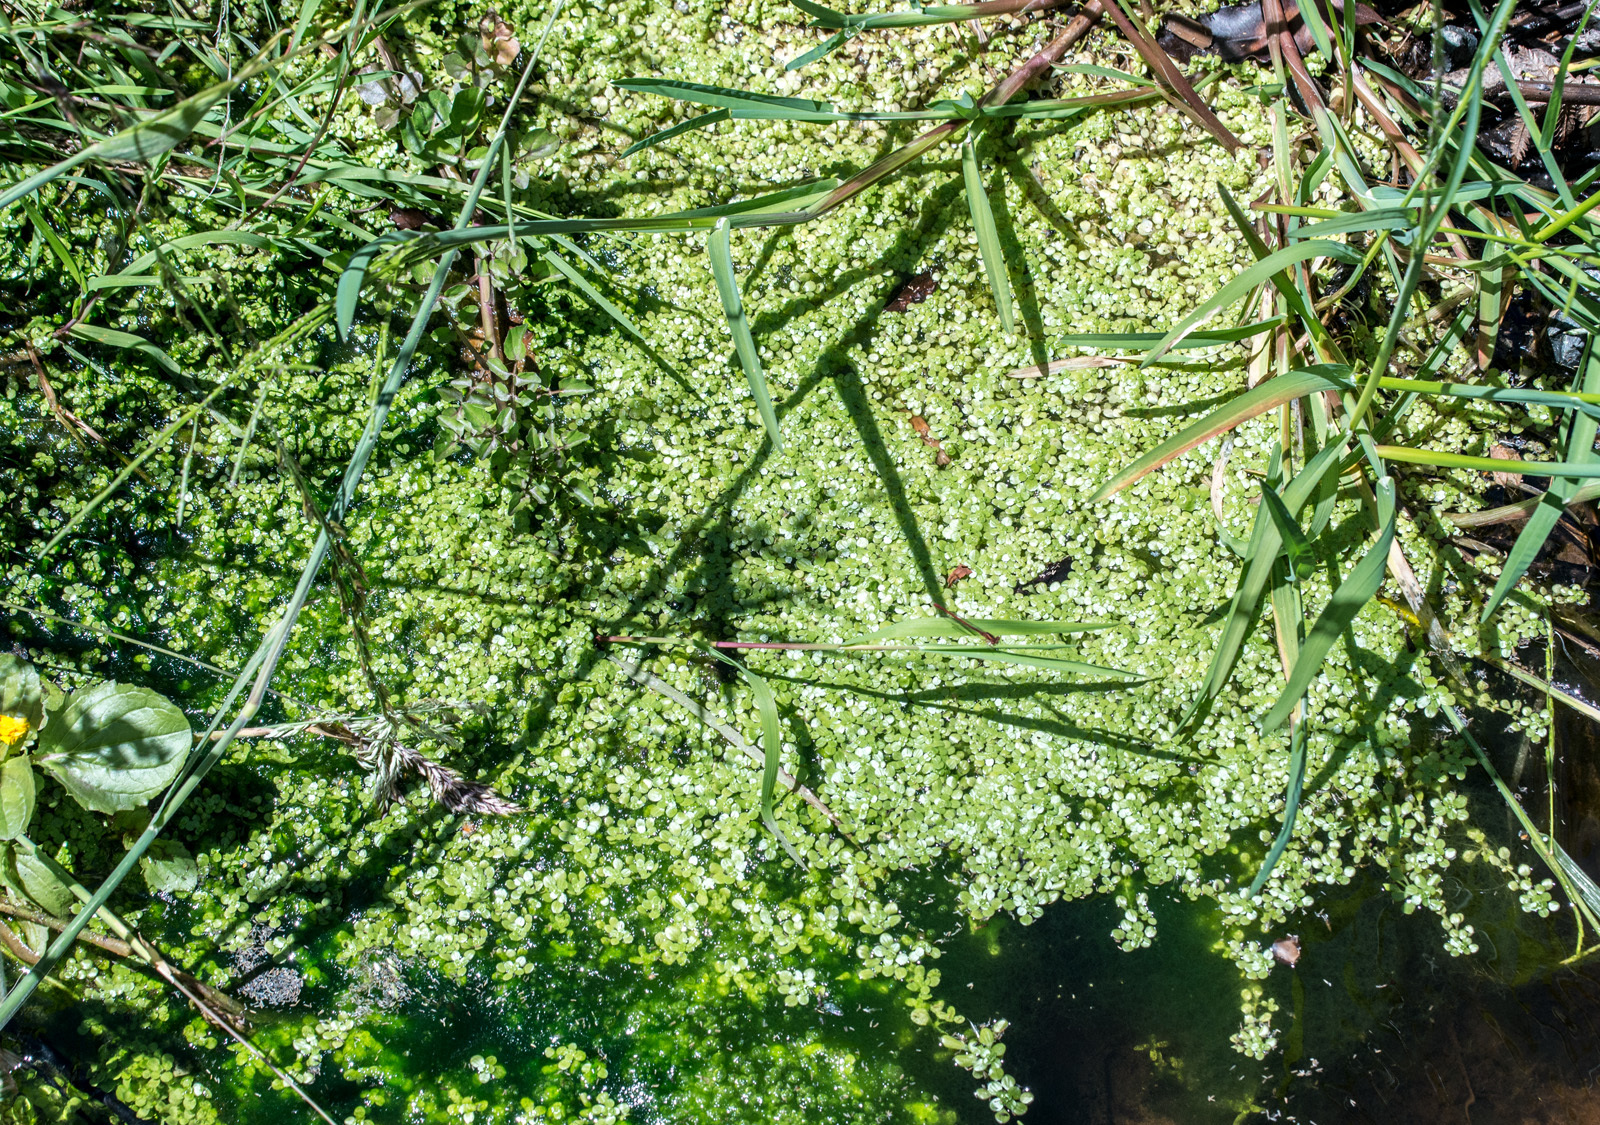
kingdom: Plantae
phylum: Tracheophyta
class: Magnoliopsida
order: Lamiales
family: Plantaginaceae
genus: Callitriche
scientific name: Callitriche stagnalis
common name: Common water-starwort
